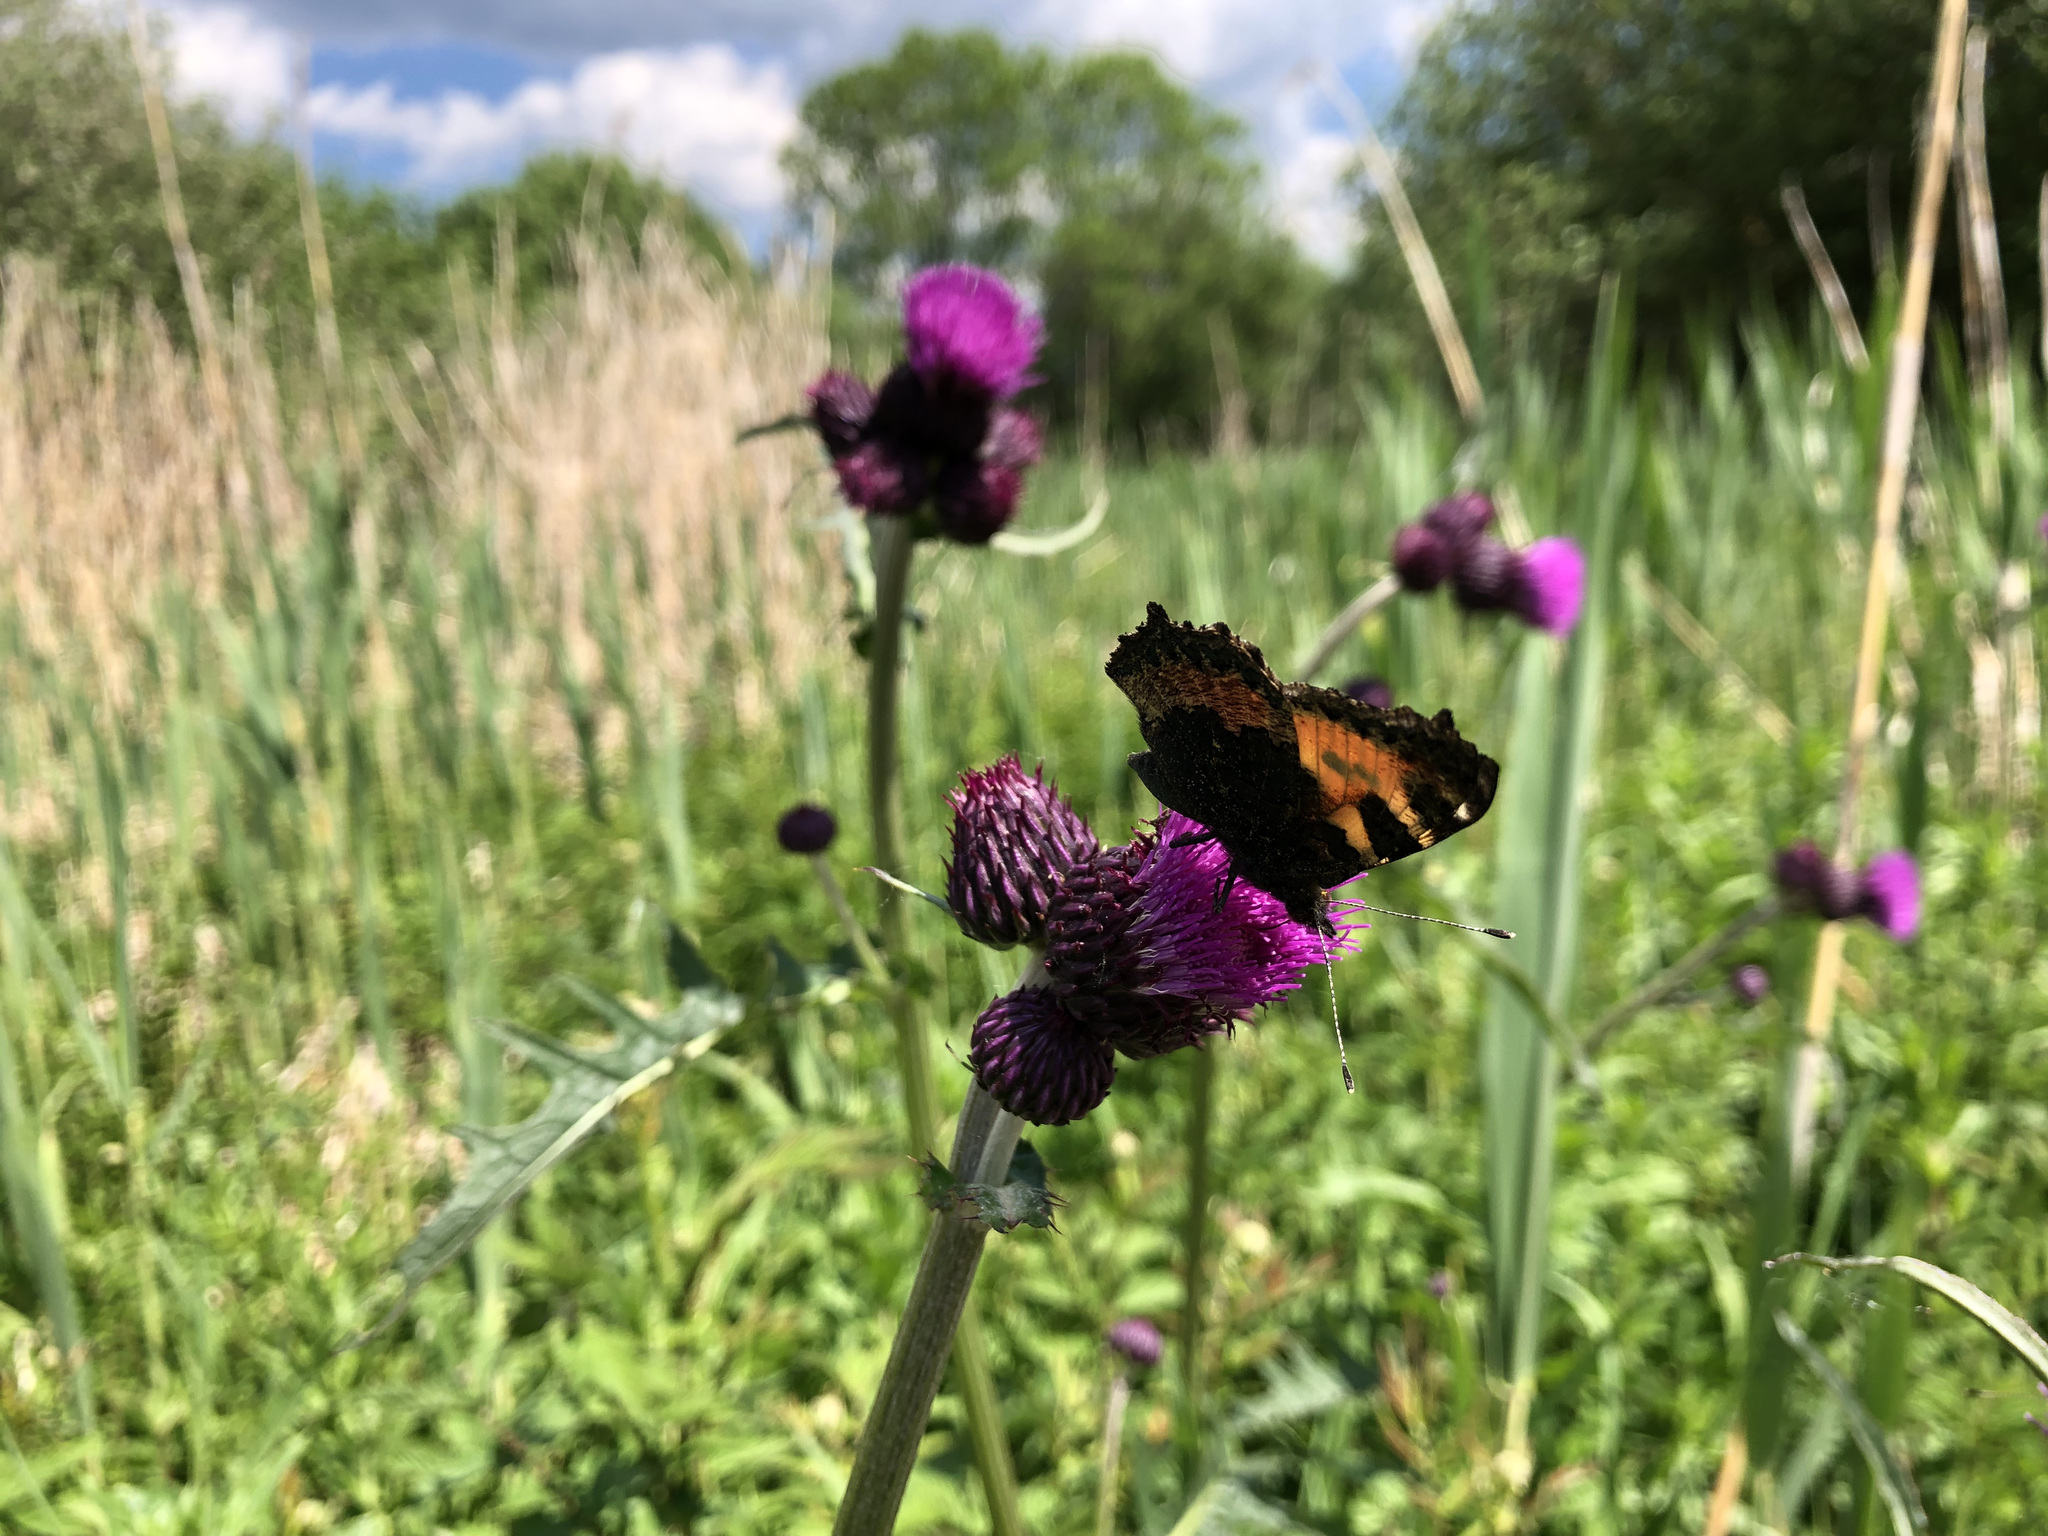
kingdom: Animalia
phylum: Arthropoda
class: Insecta
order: Lepidoptera
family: Nymphalidae
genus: Aglais
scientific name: Aglais urticae
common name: Small tortoiseshell
